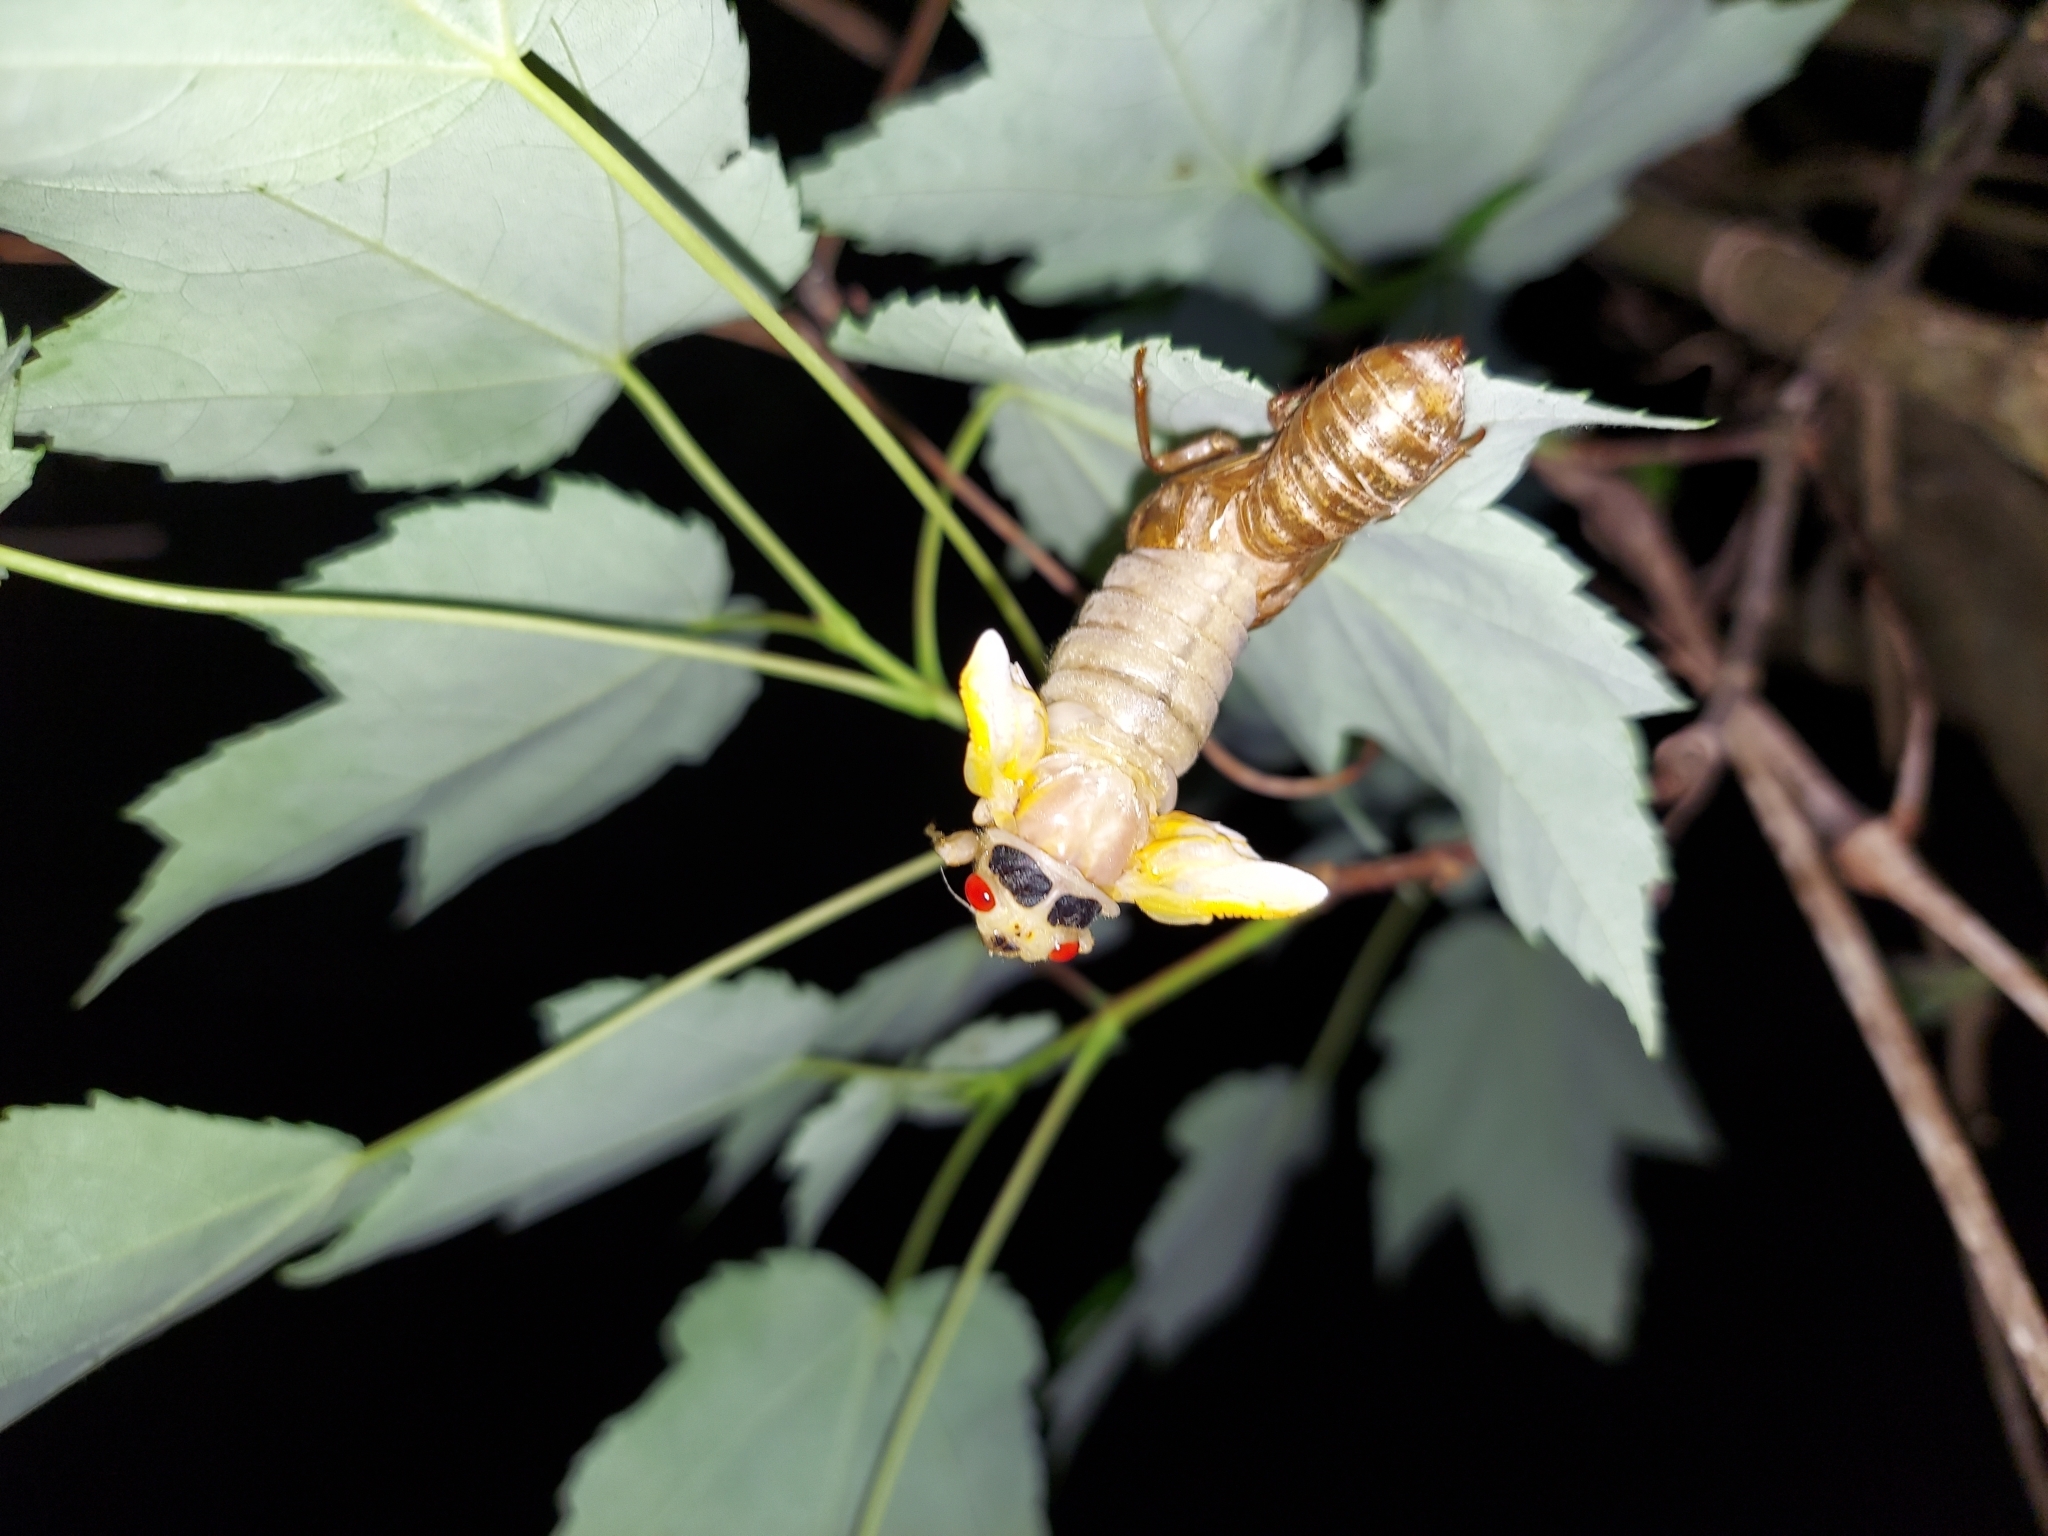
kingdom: Animalia
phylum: Arthropoda
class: Insecta
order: Hemiptera
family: Cicadidae
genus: Magicicada
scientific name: Magicicada
